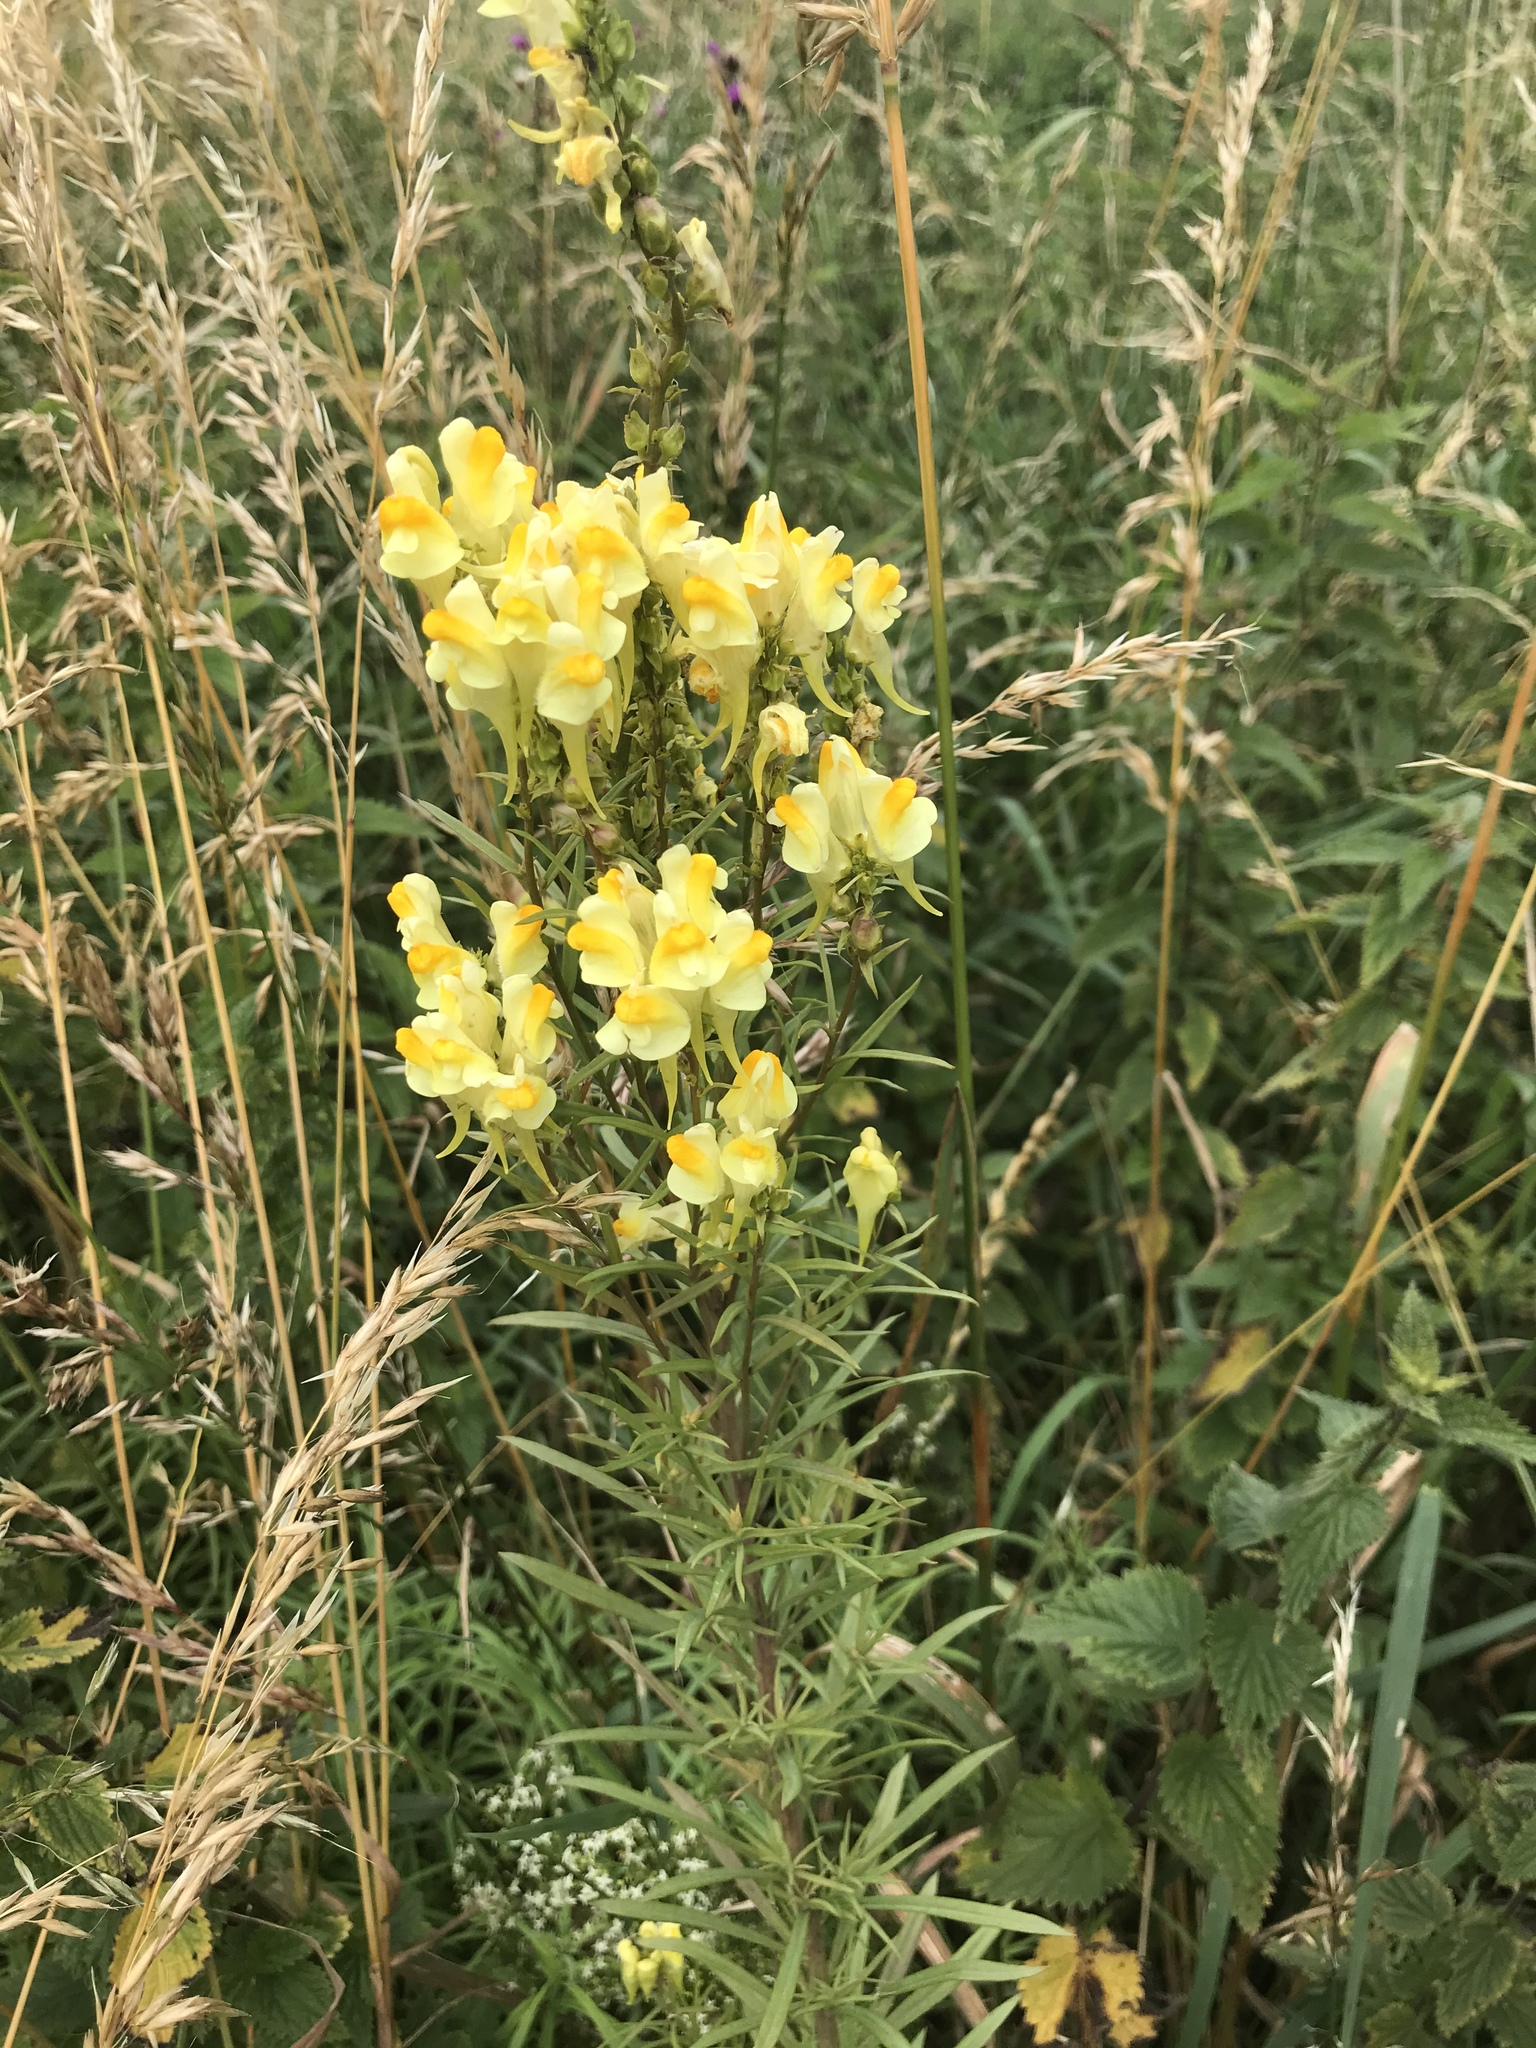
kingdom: Plantae
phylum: Tracheophyta
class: Magnoliopsida
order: Lamiales
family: Plantaginaceae
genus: Linaria
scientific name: Linaria vulgaris
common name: Butter and eggs
